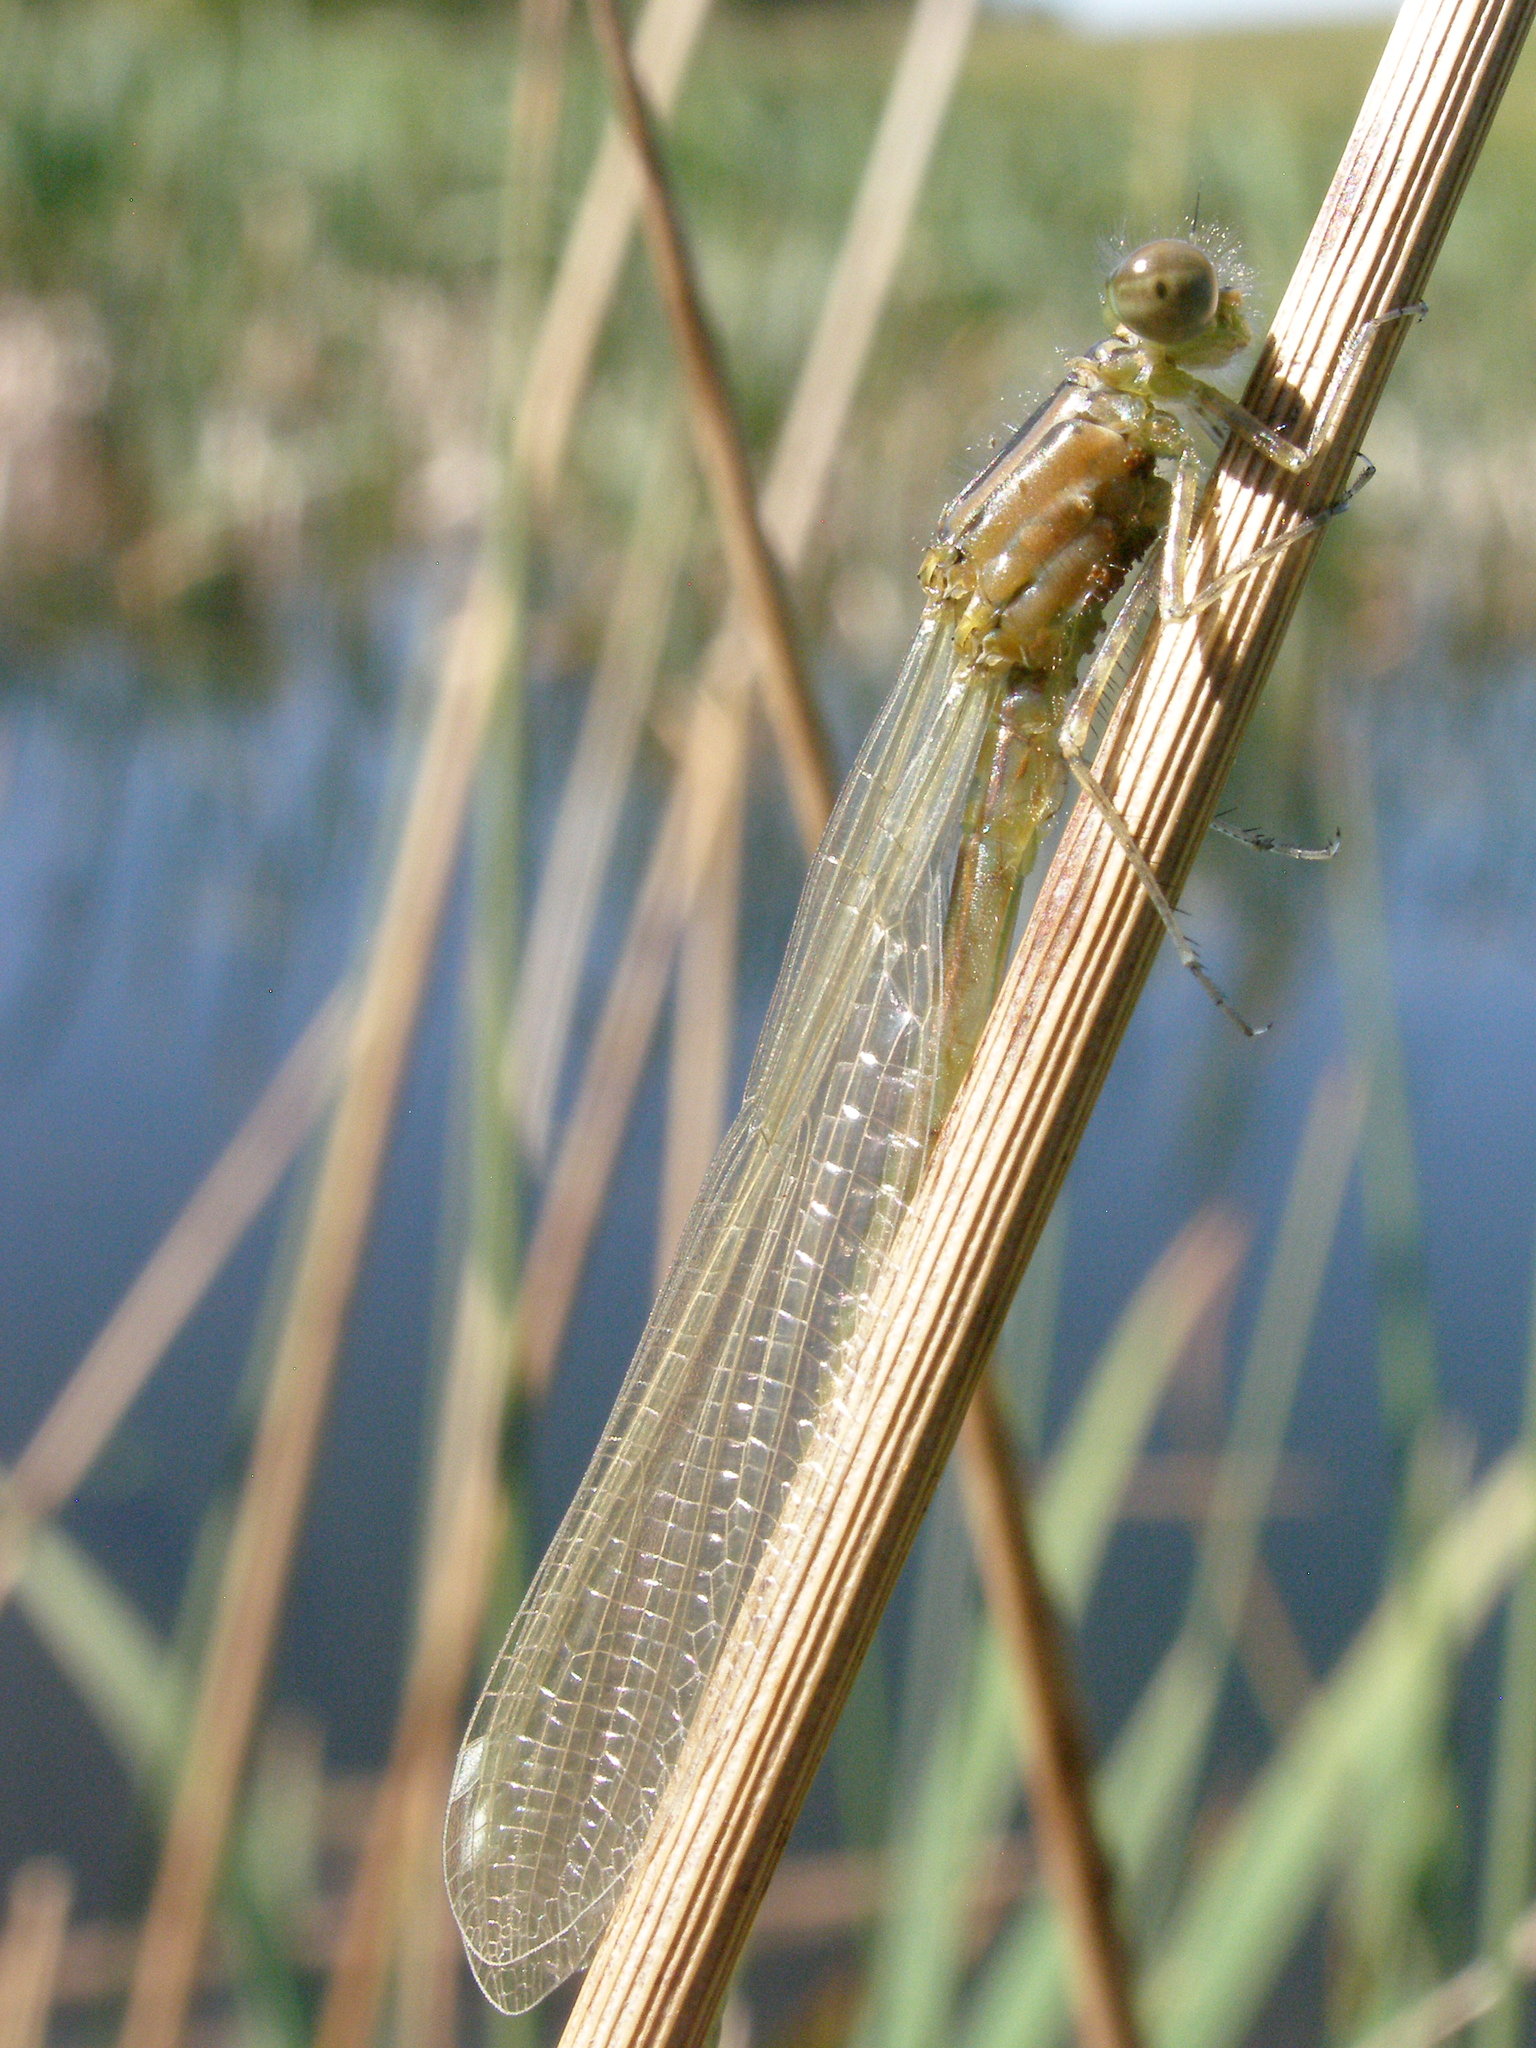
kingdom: Animalia
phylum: Arthropoda
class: Insecta
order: Odonata
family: Coenagrionidae
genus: Enallagma
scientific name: Enallagma cyathigerum
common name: Common blue damselfly
